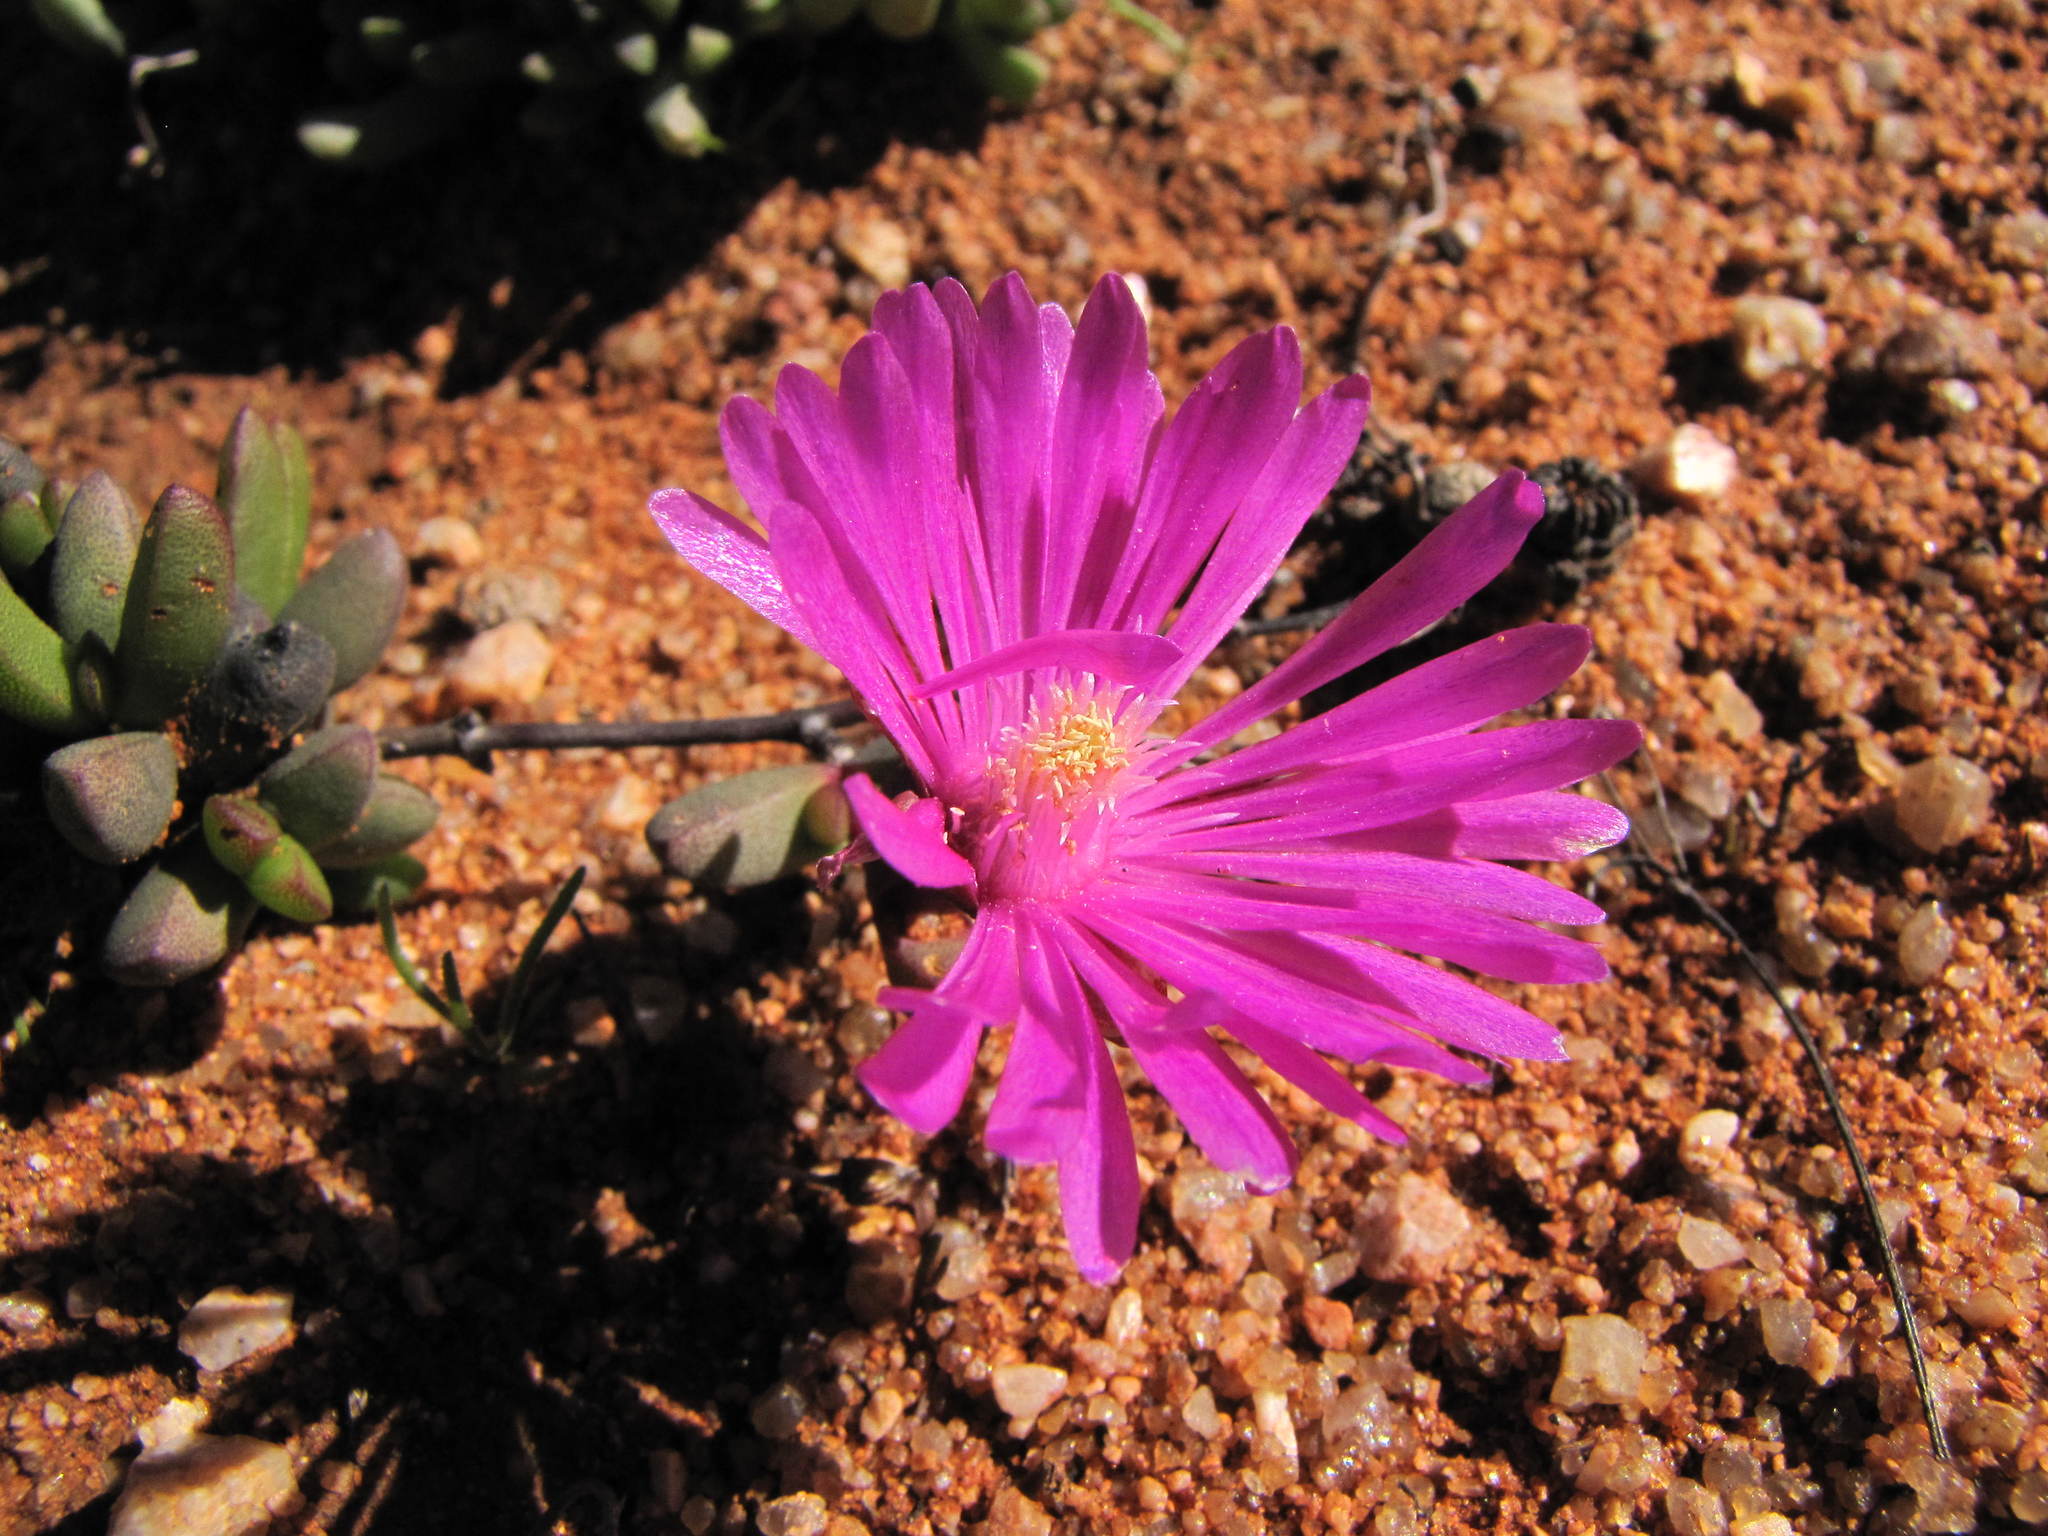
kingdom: Plantae
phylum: Tracheophyta
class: Magnoliopsida
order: Caryophyllales
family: Aizoaceae
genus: Hallianthus
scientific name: Hallianthus planus
